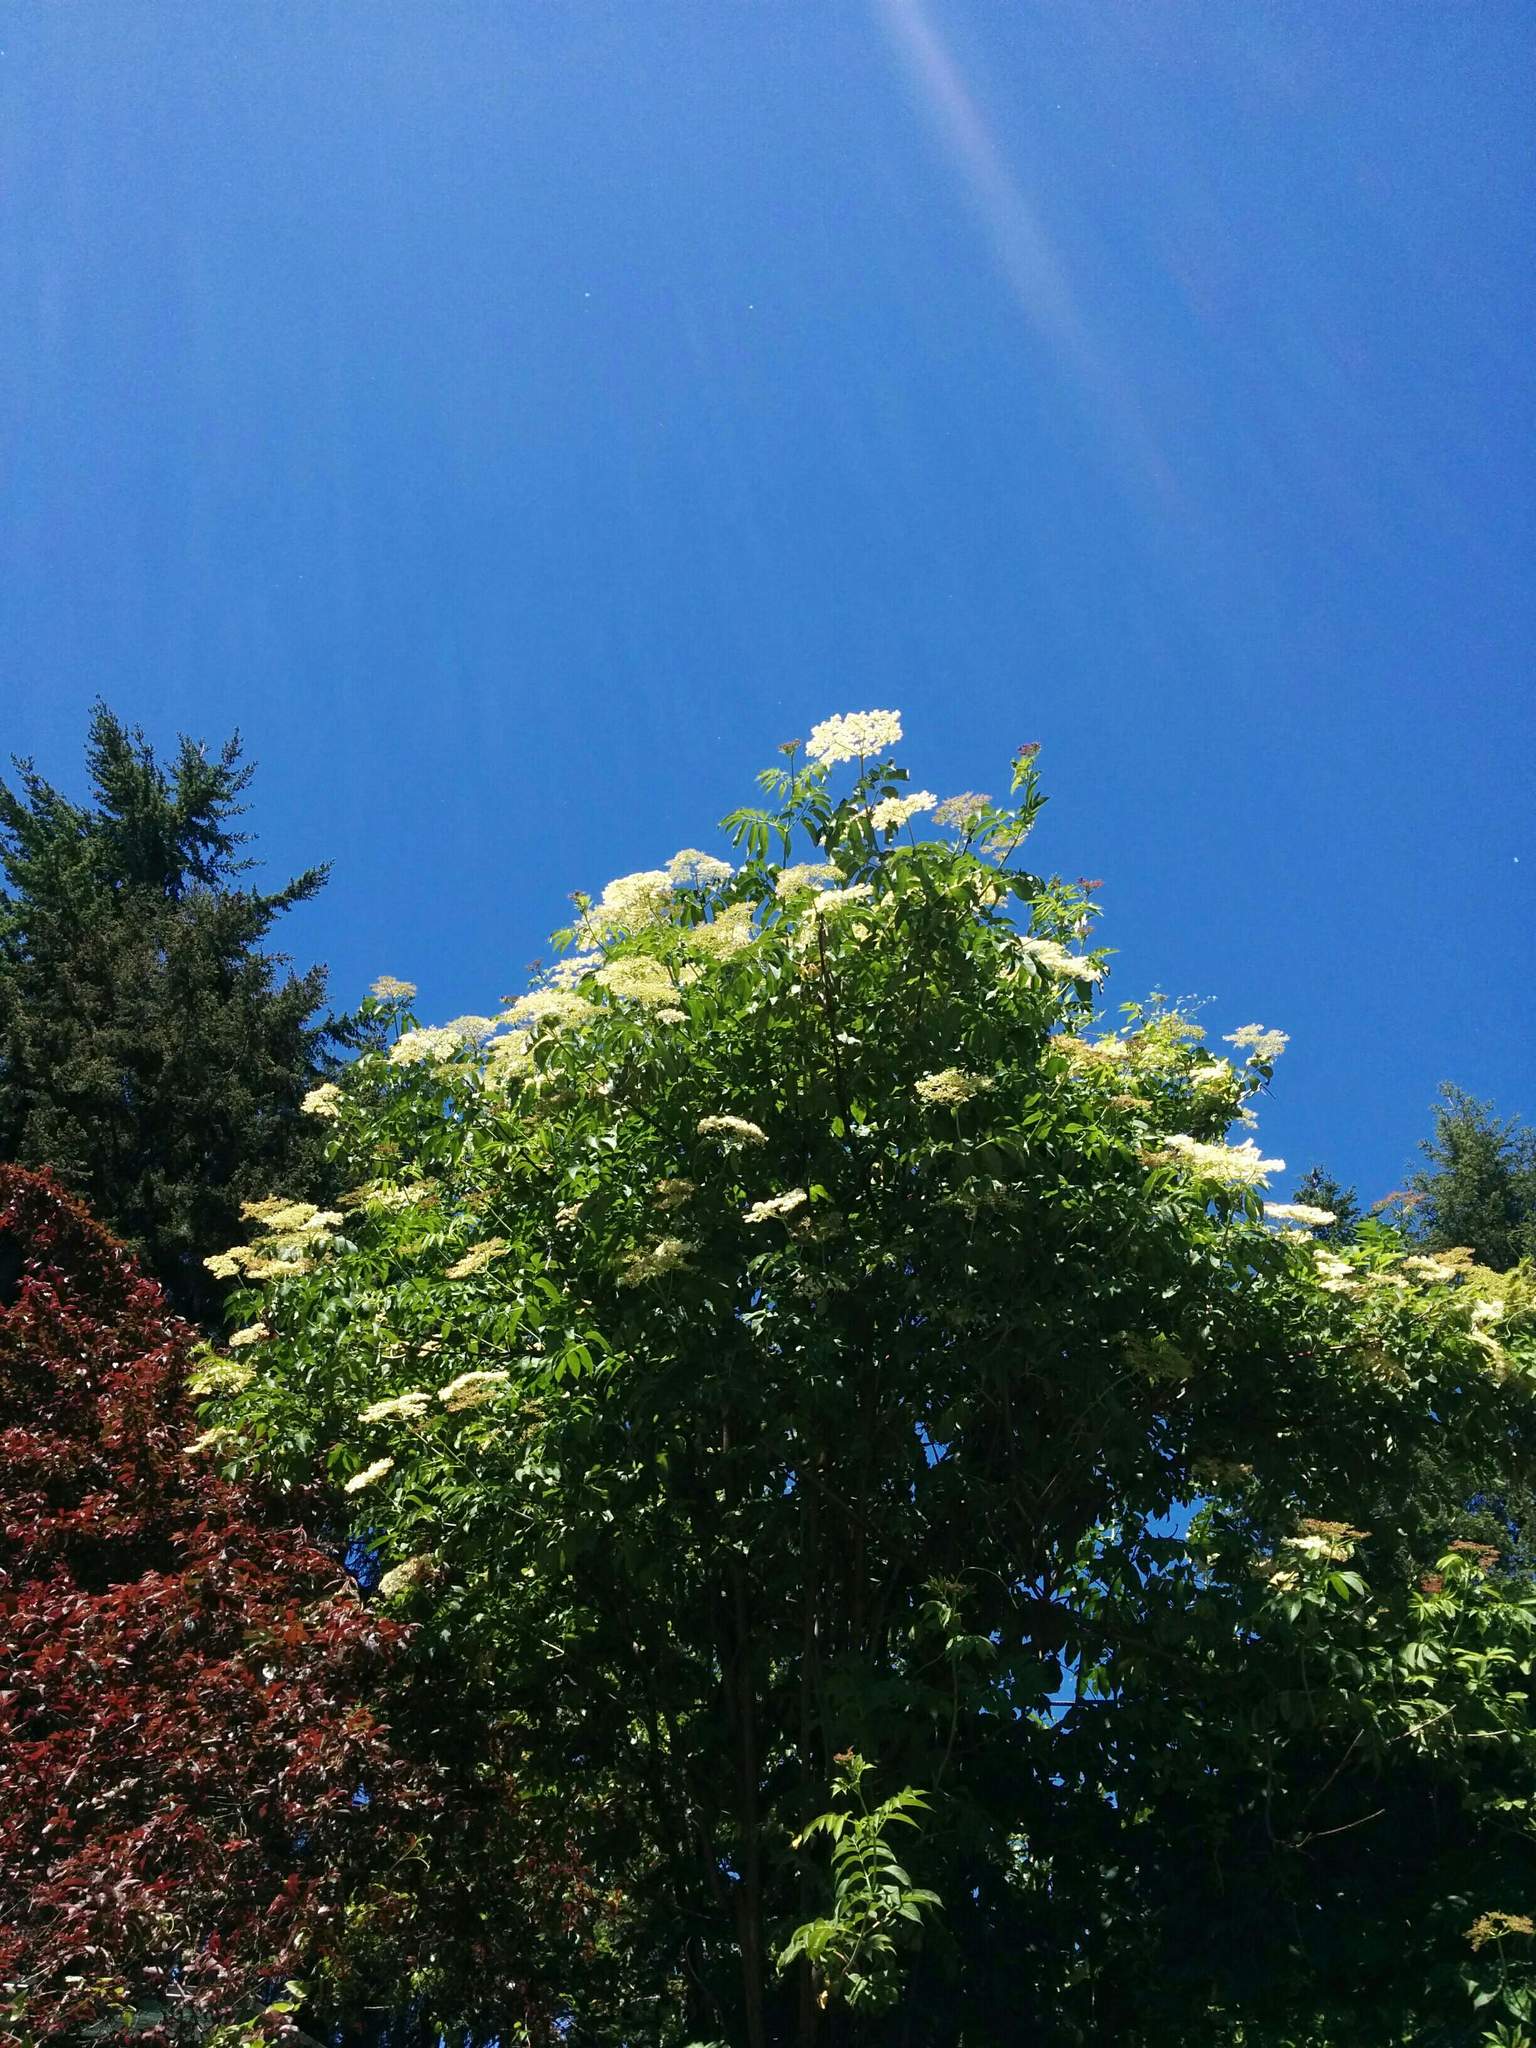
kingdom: Plantae
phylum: Tracheophyta
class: Magnoliopsida
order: Dipsacales
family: Viburnaceae
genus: Sambucus
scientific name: Sambucus cerulea
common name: Blue elder
